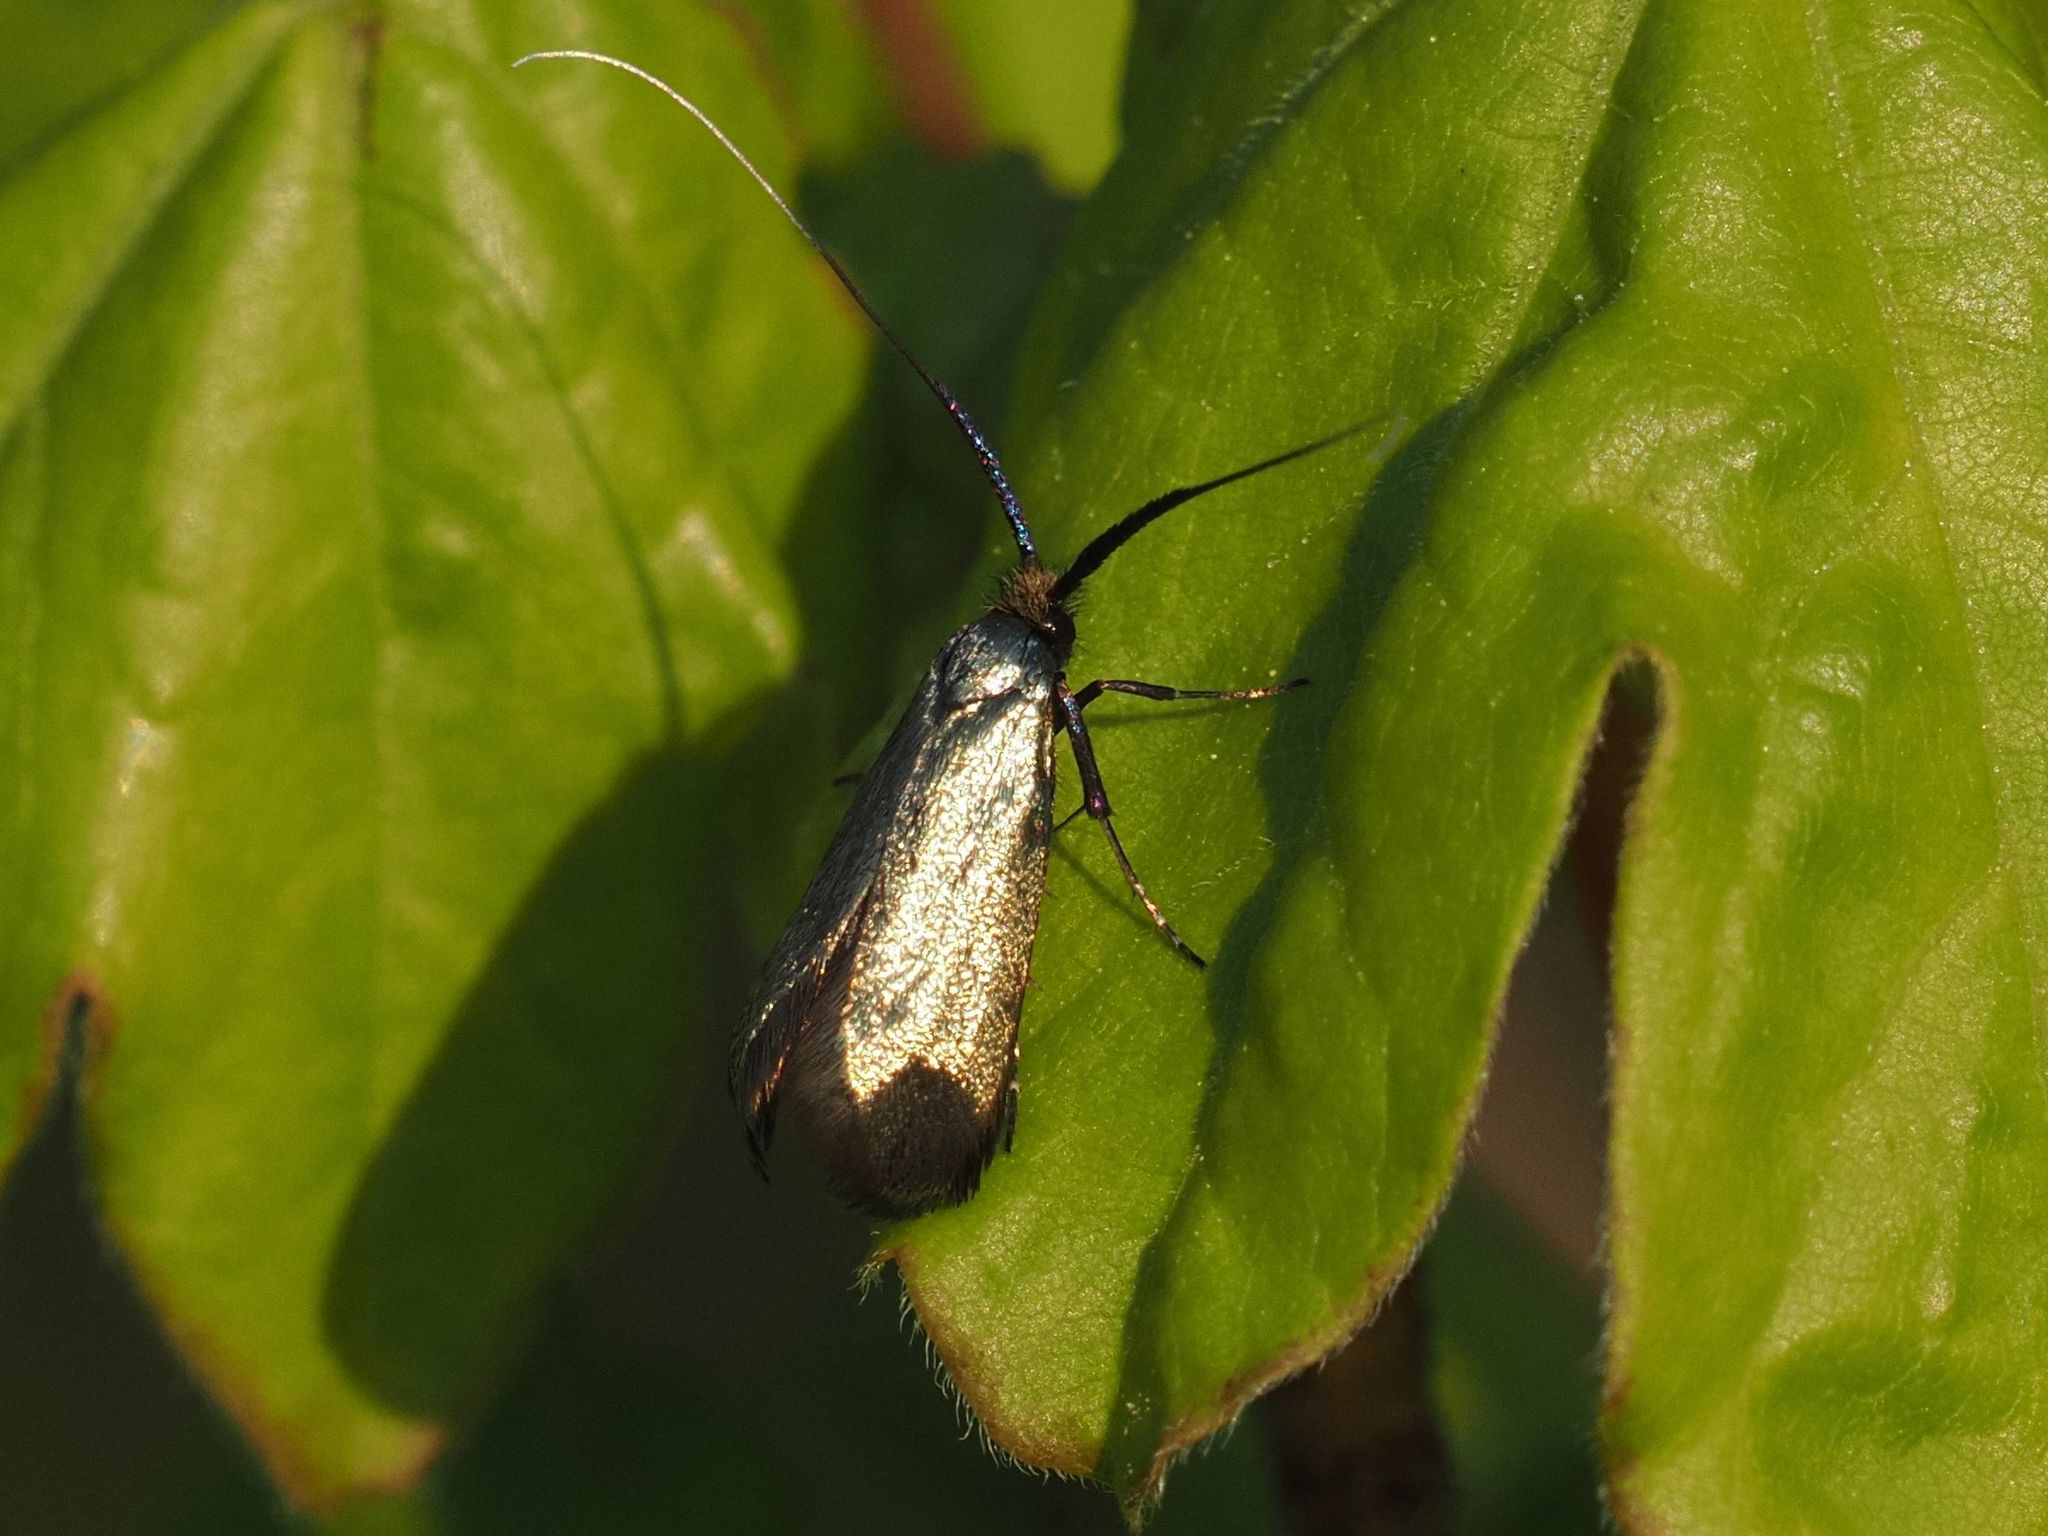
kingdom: Animalia
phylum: Arthropoda
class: Insecta
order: Lepidoptera
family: Adelidae
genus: Adela
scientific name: Adela viridella
